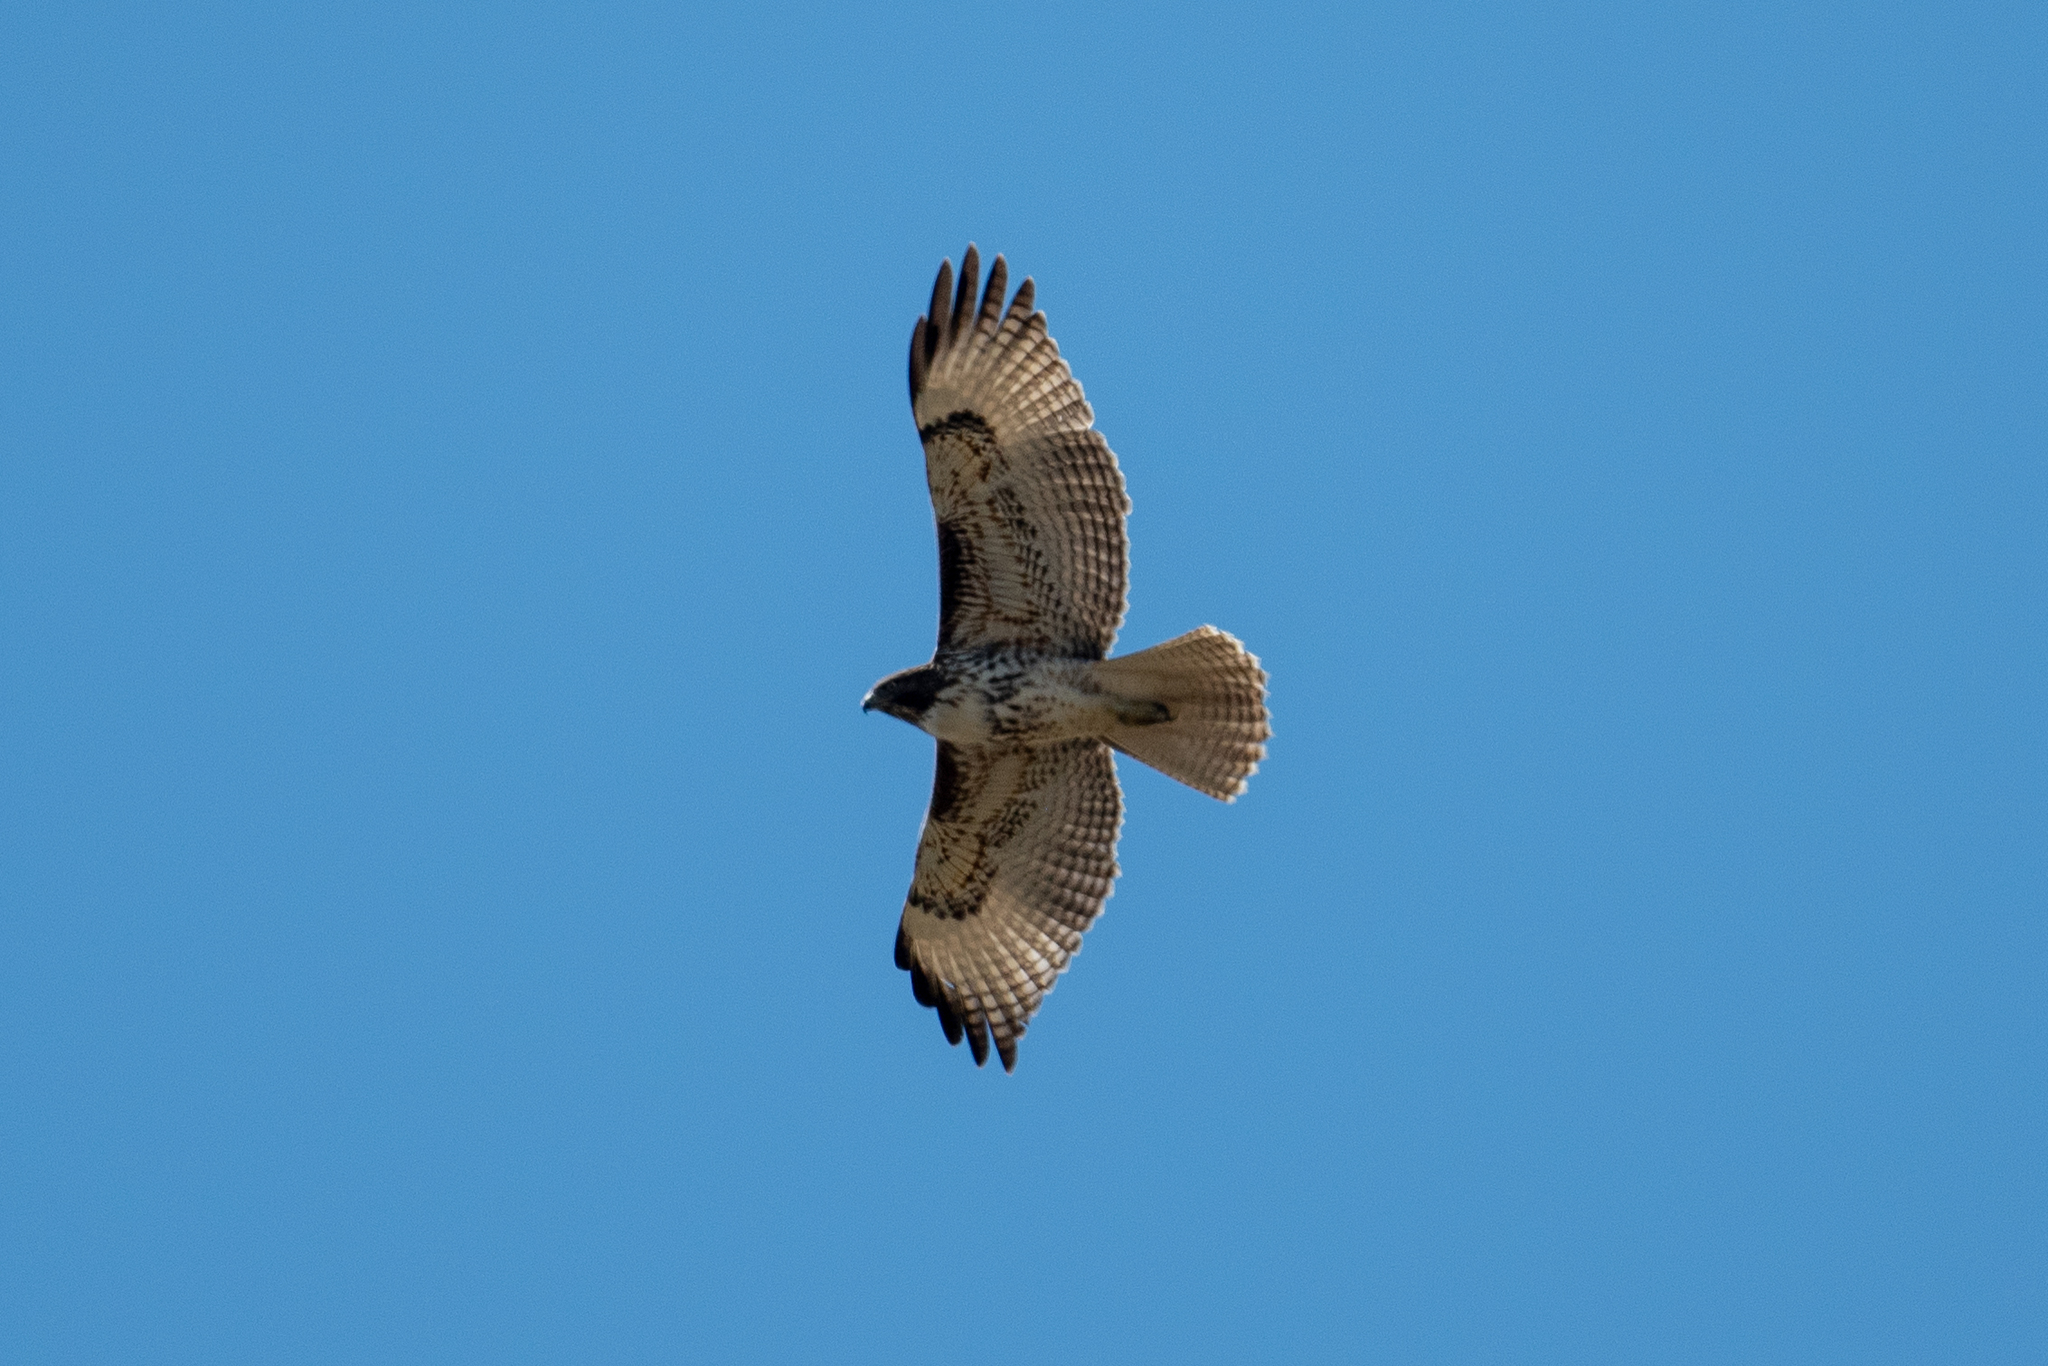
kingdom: Animalia
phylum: Chordata
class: Aves
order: Accipitriformes
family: Accipitridae
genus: Buteo
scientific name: Buteo jamaicensis
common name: Red-tailed hawk
